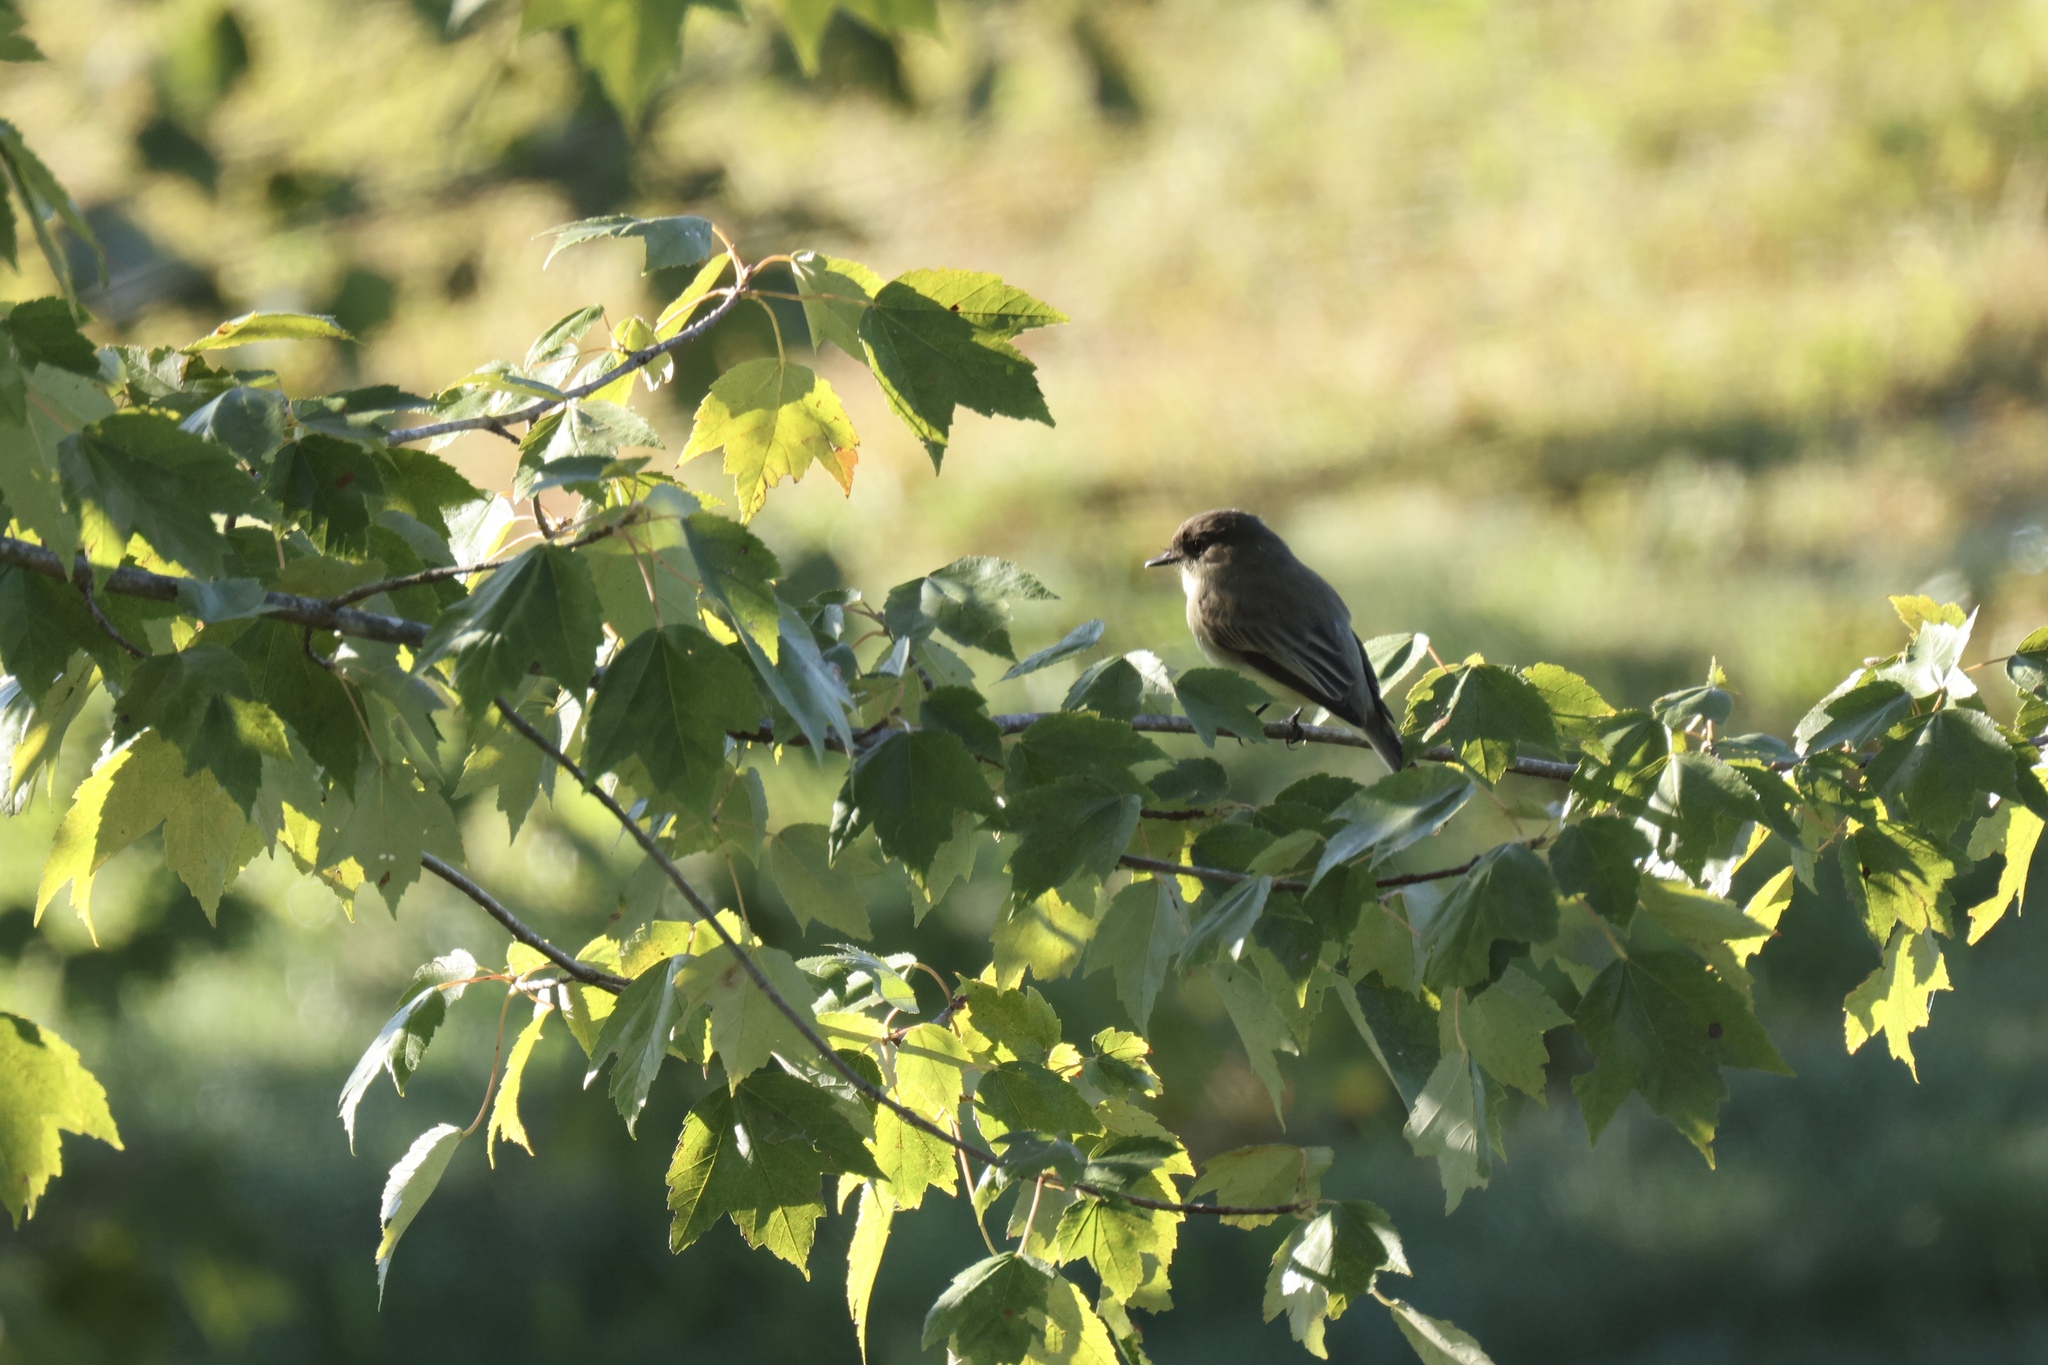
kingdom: Animalia
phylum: Chordata
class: Aves
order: Passeriformes
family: Tyrannidae
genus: Sayornis
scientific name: Sayornis phoebe
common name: Eastern phoebe
